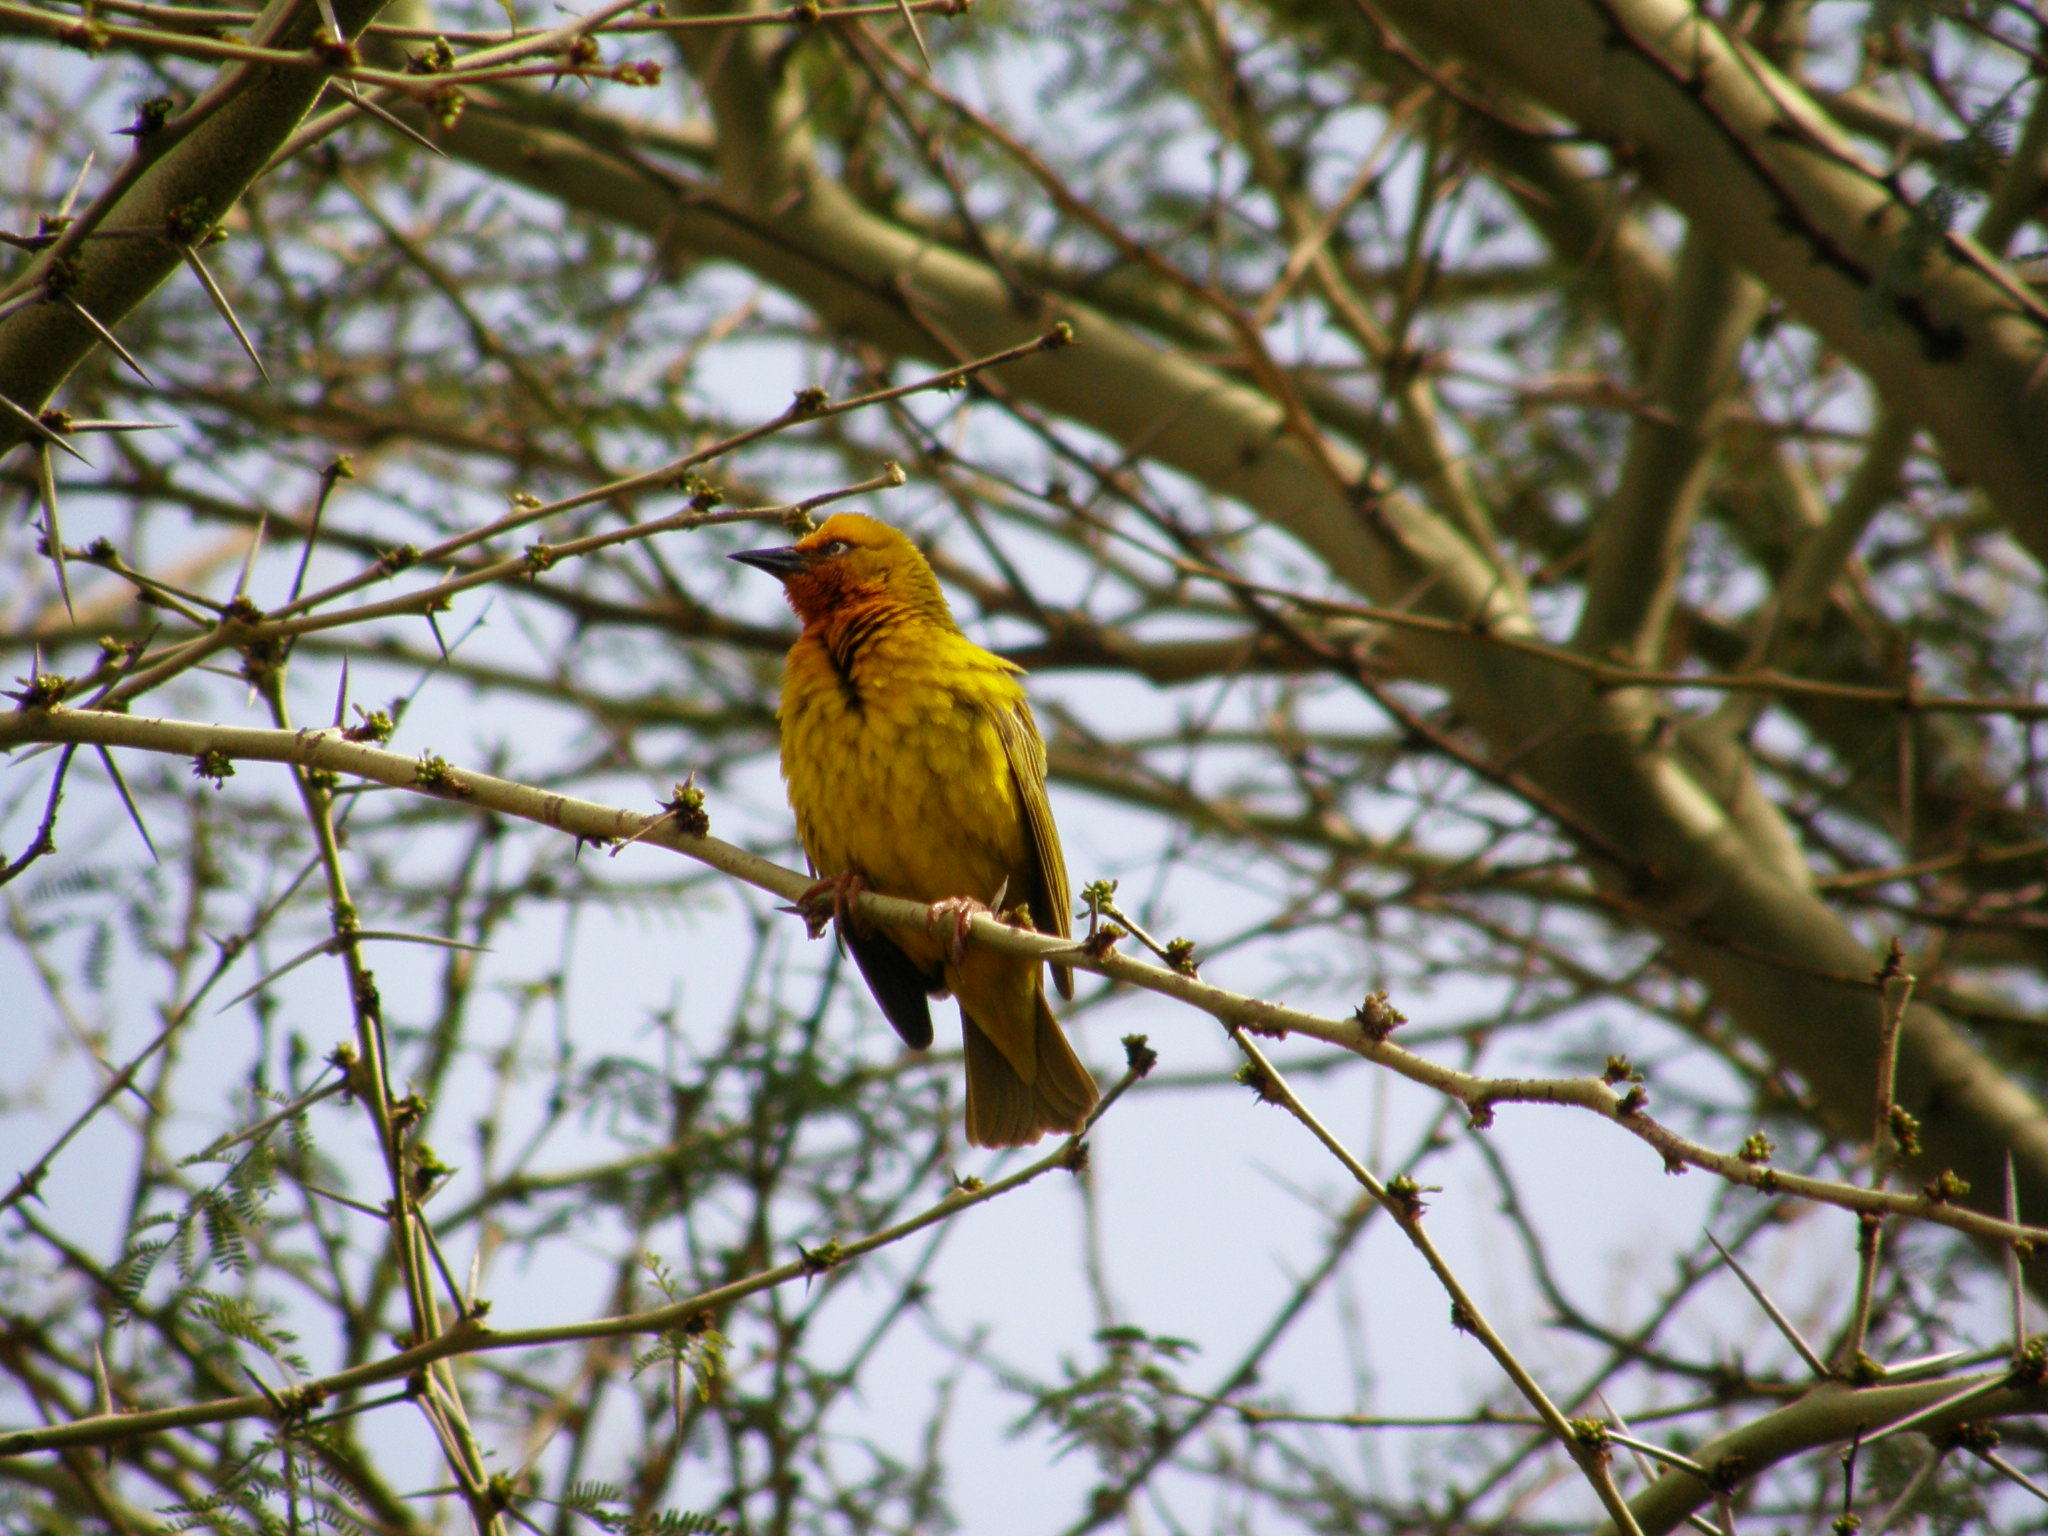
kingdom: Animalia
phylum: Chordata
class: Aves
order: Passeriformes
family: Ploceidae
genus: Ploceus
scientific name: Ploceus capensis
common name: Cape weaver
